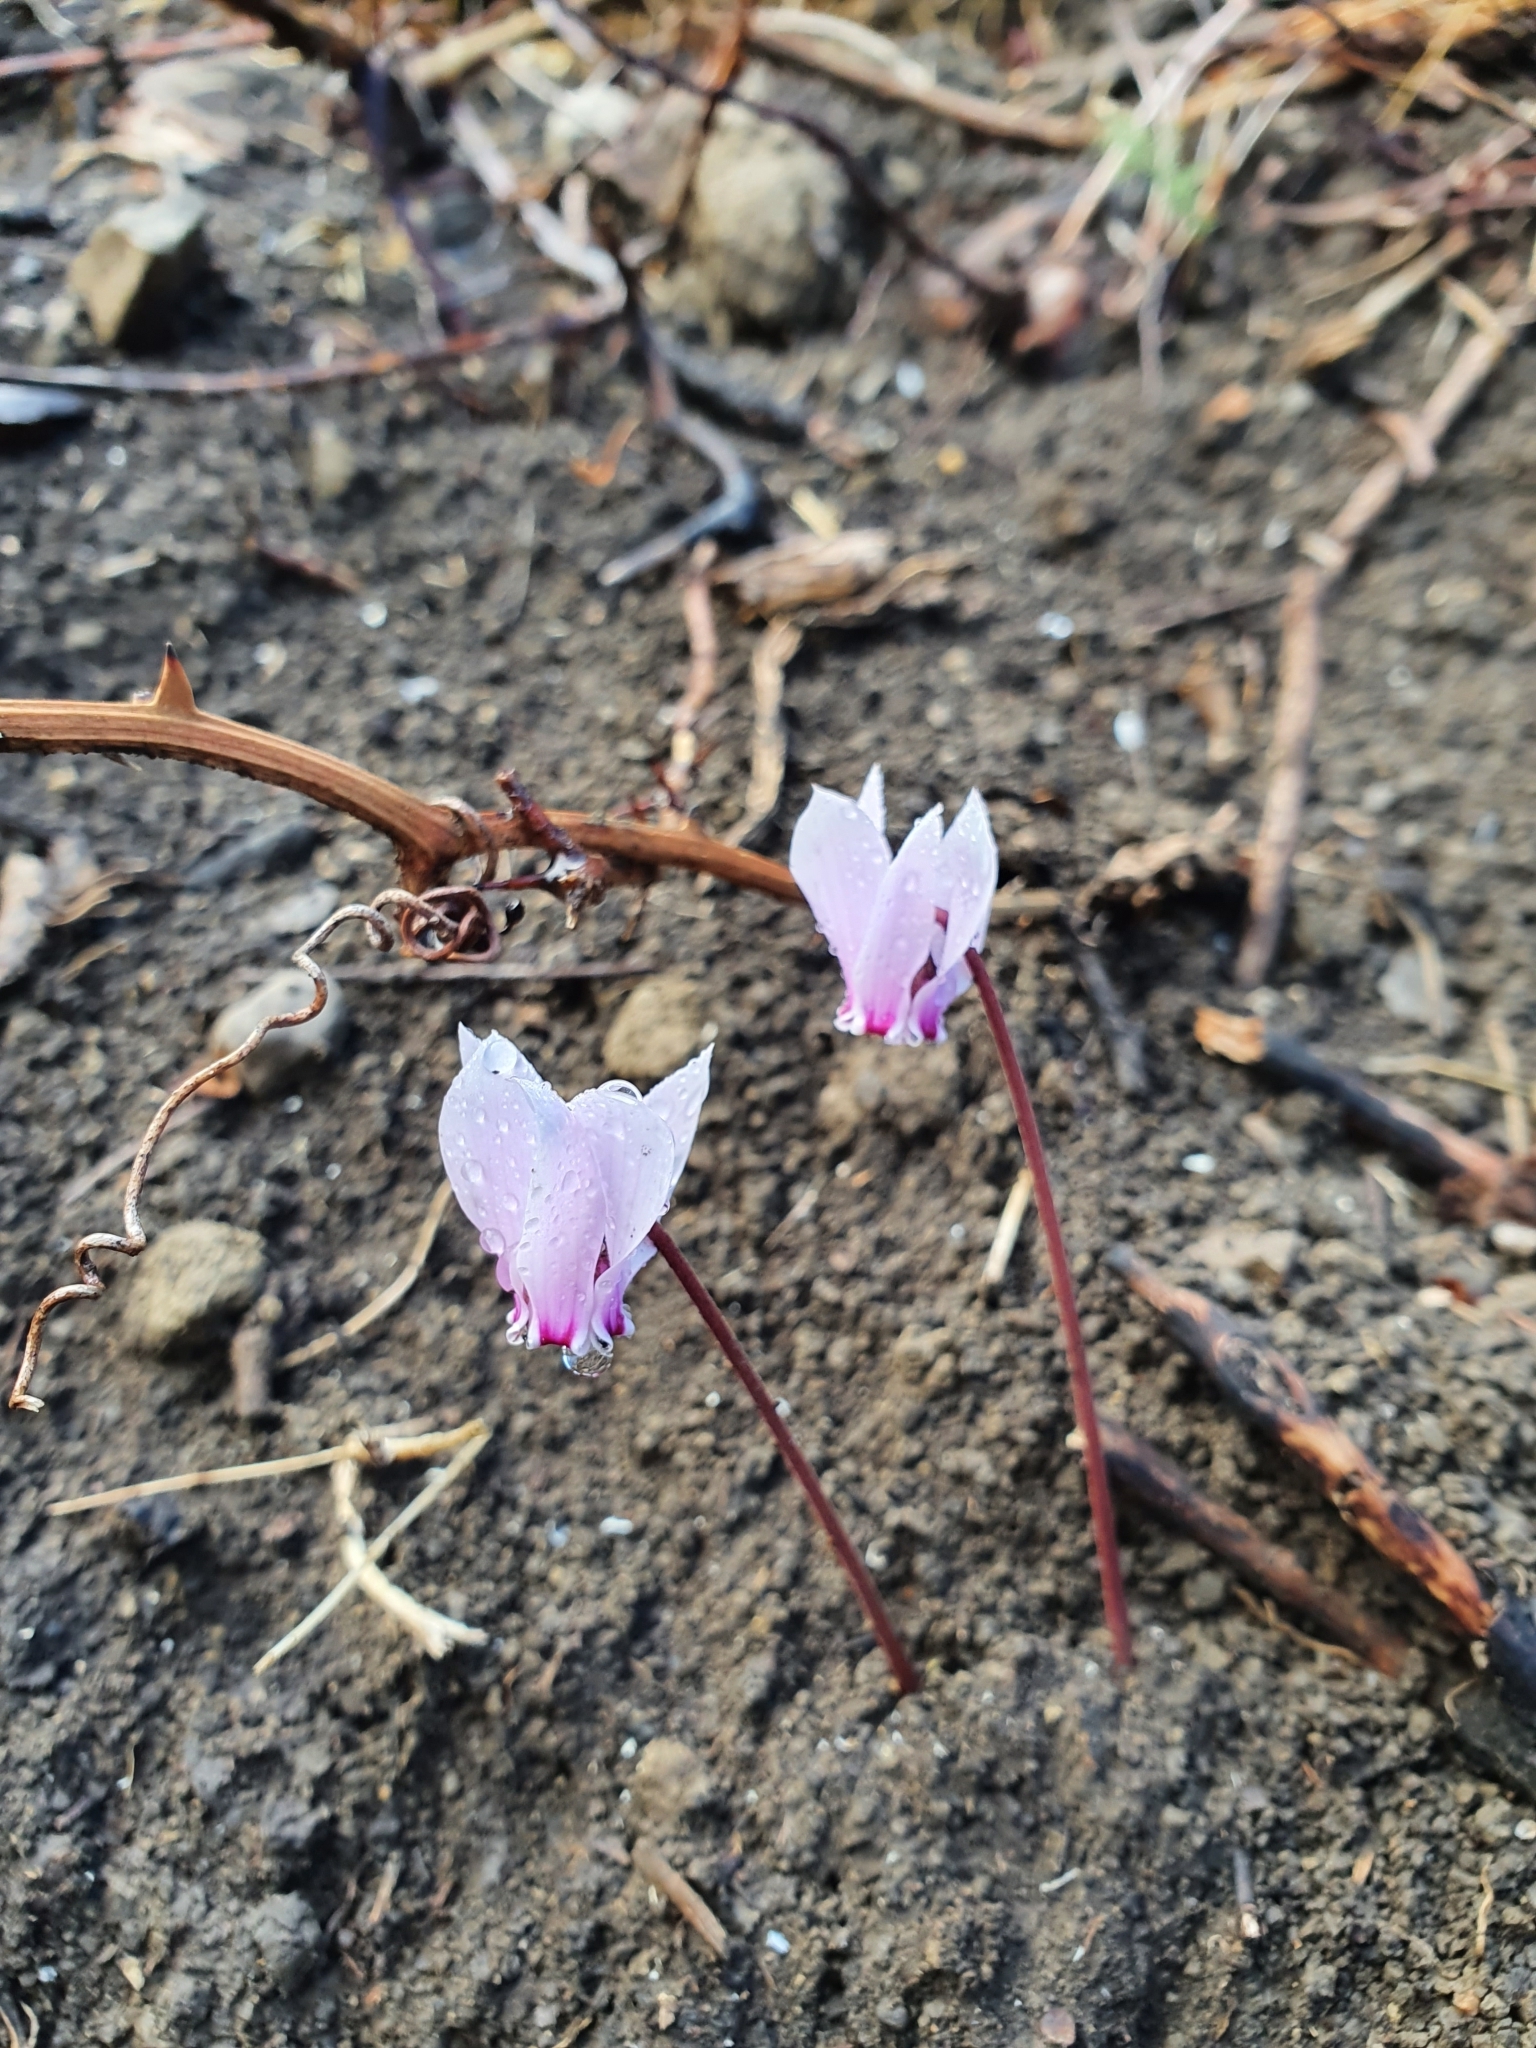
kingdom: Plantae
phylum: Tracheophyta
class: Magnoliopsida
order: Ericales
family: Primulaceae
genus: Cyclamen
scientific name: Cyclamen africanum
